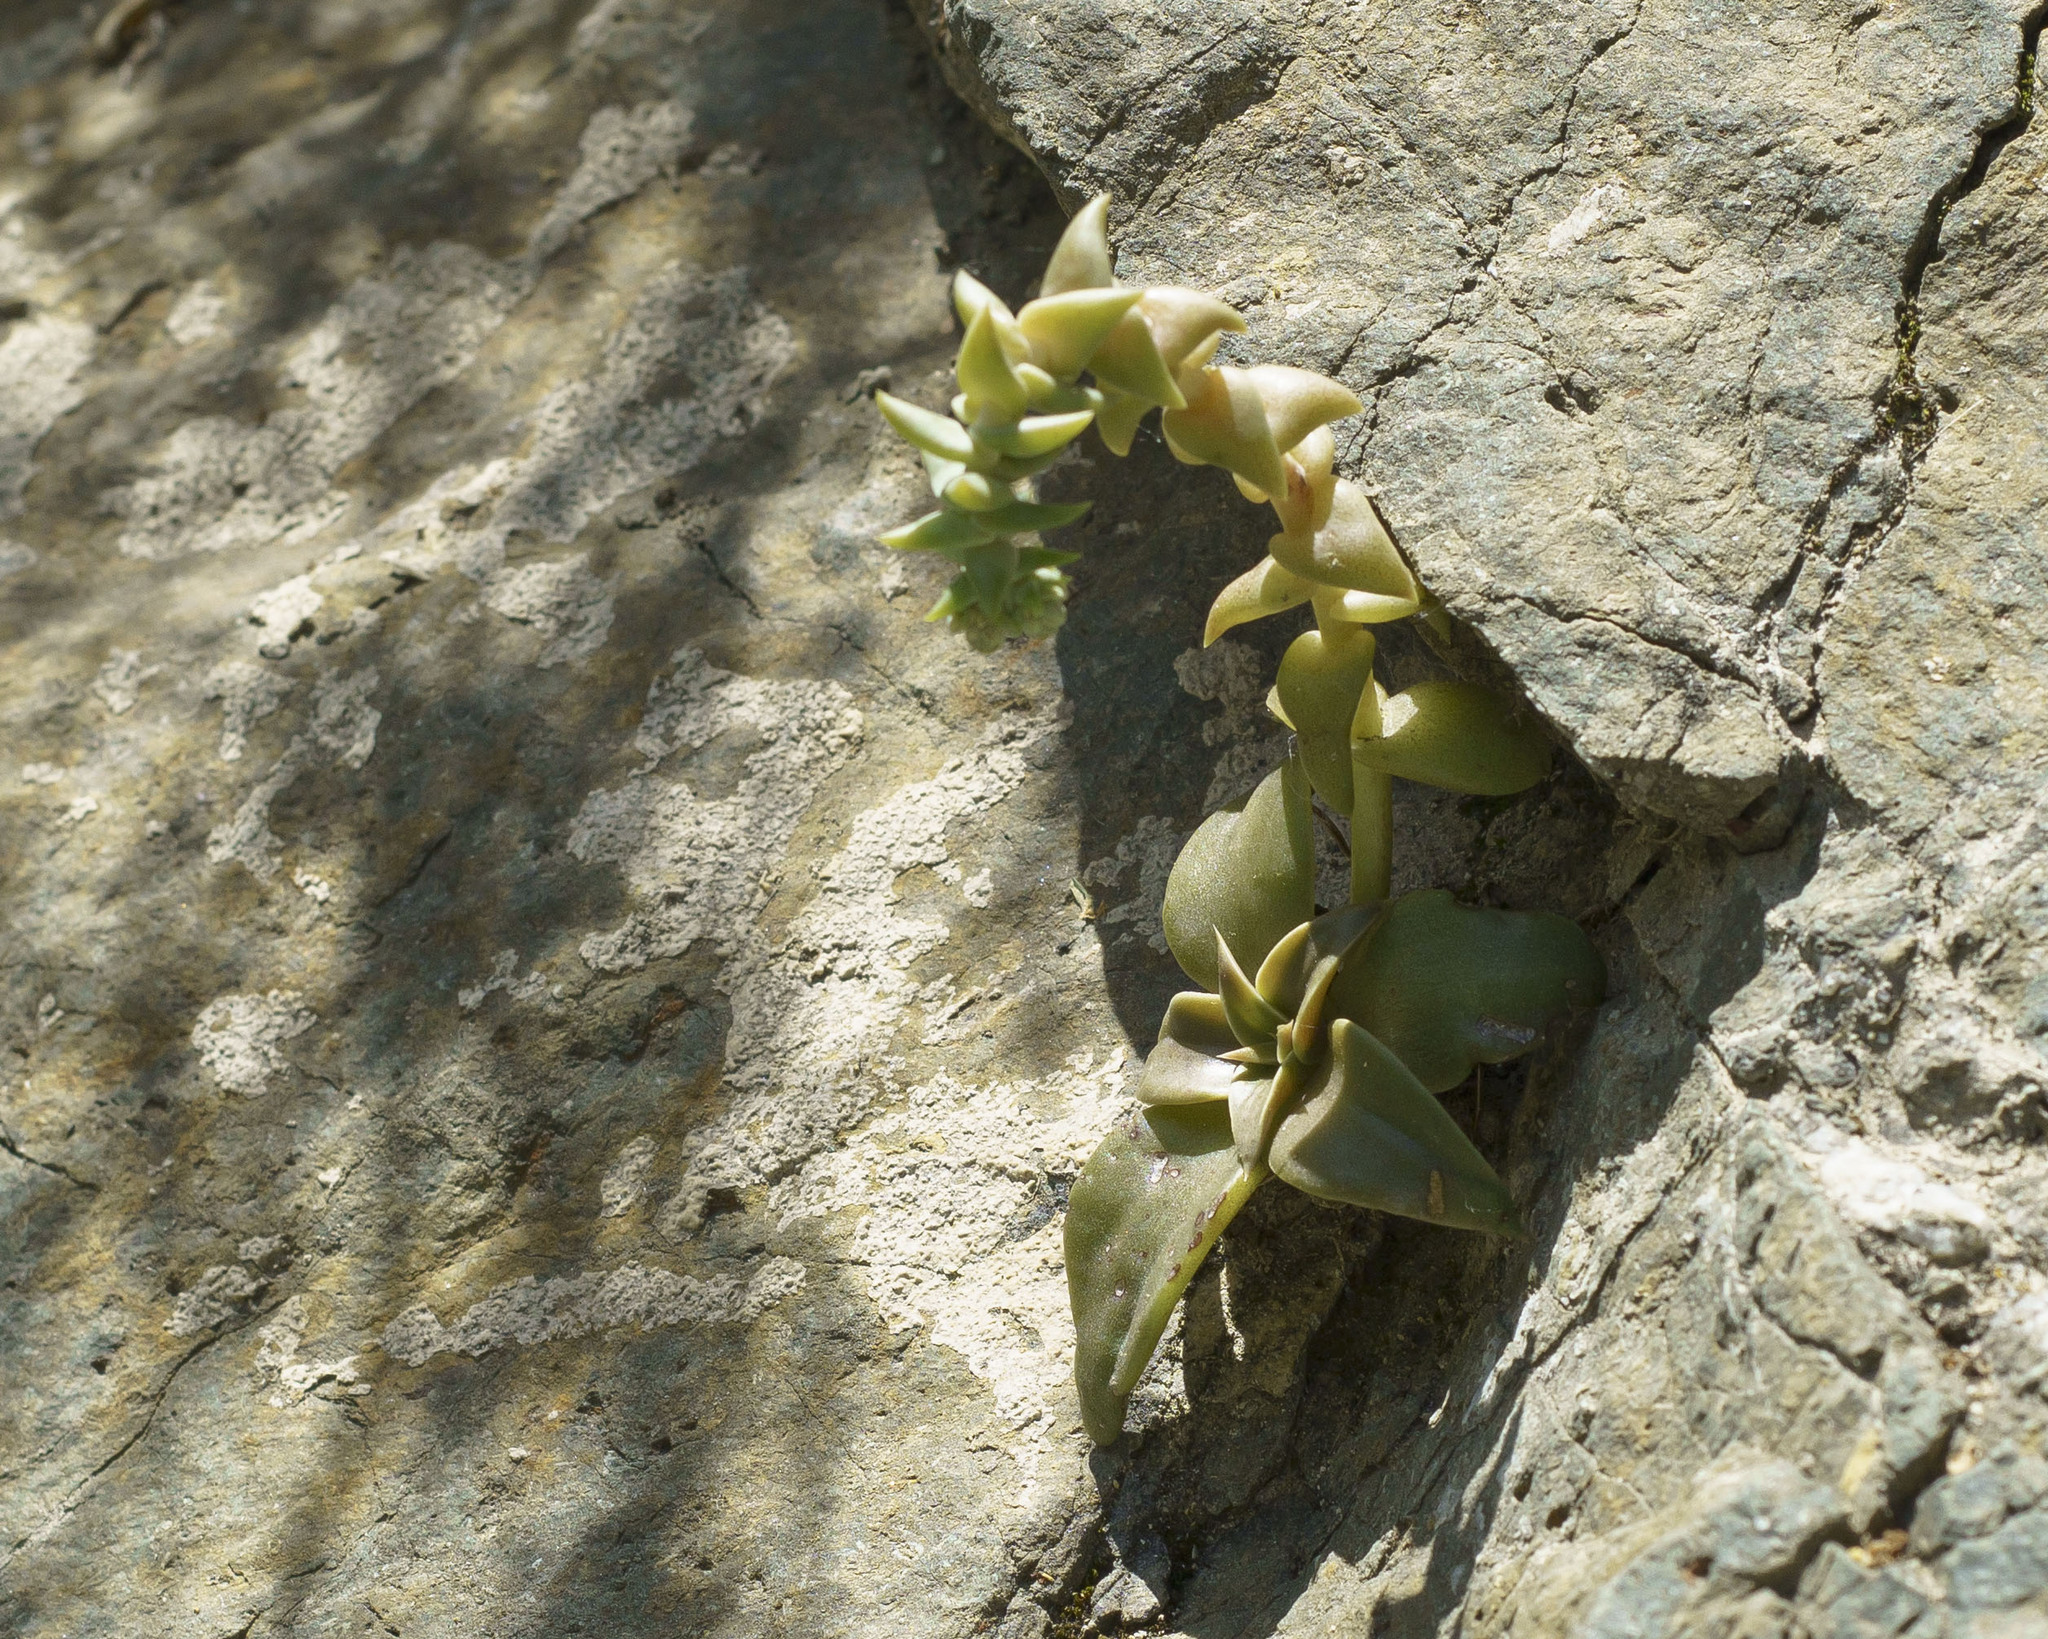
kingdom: Plantae
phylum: Tracheophyta
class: Magnoliopsida
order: Saxifragales
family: Crassulaceae
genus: Dudleya
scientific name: Dudleya cymosa
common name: Canyon dudleya
